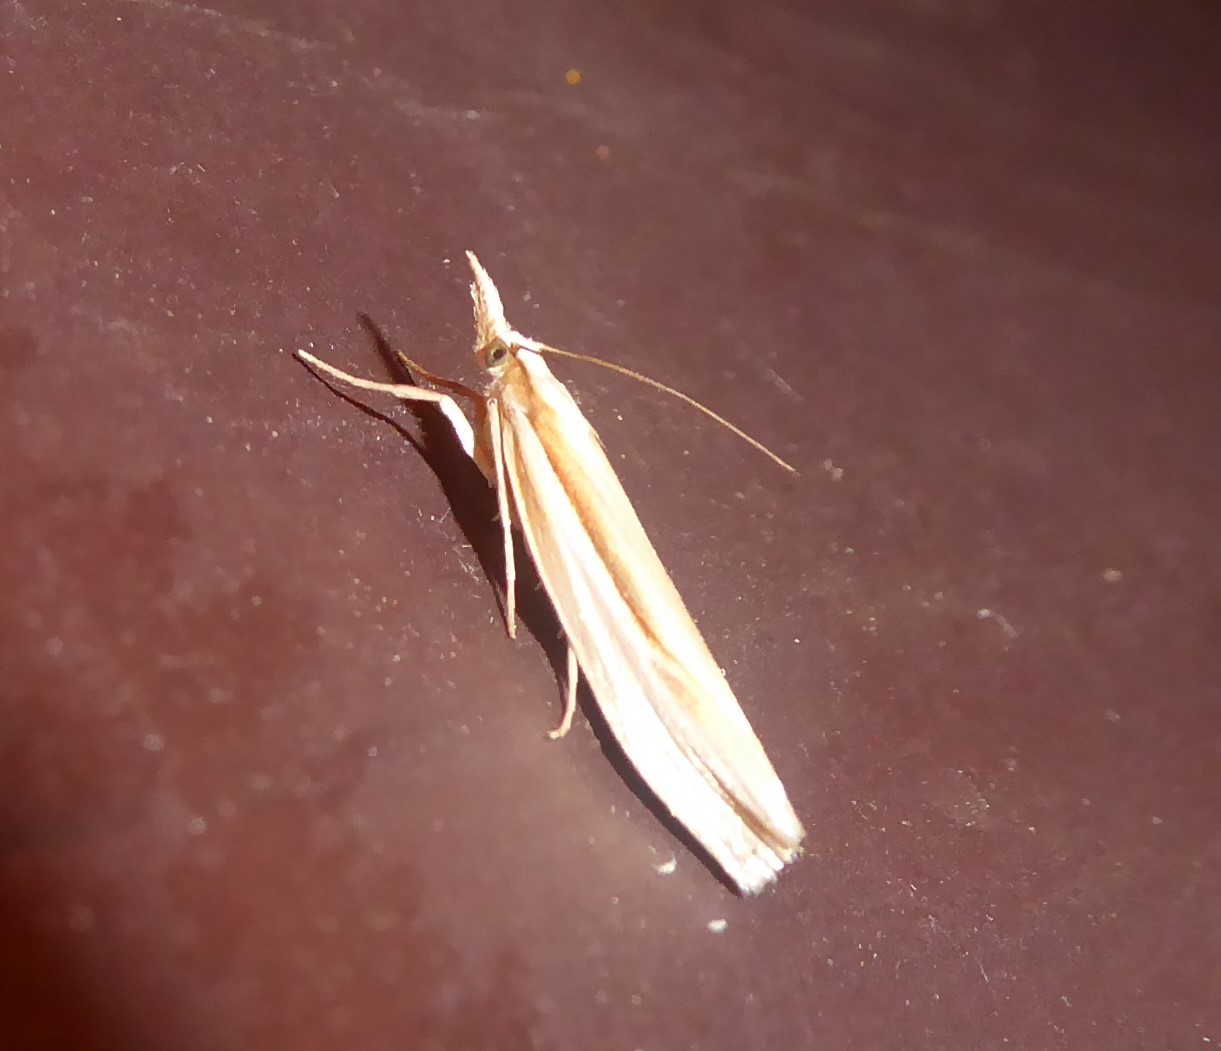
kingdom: Animalia
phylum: Arthropoda
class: Insecta
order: Lepidoptera
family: Crambidae
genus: Orocrambus
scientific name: Orocrambus ramosellus
